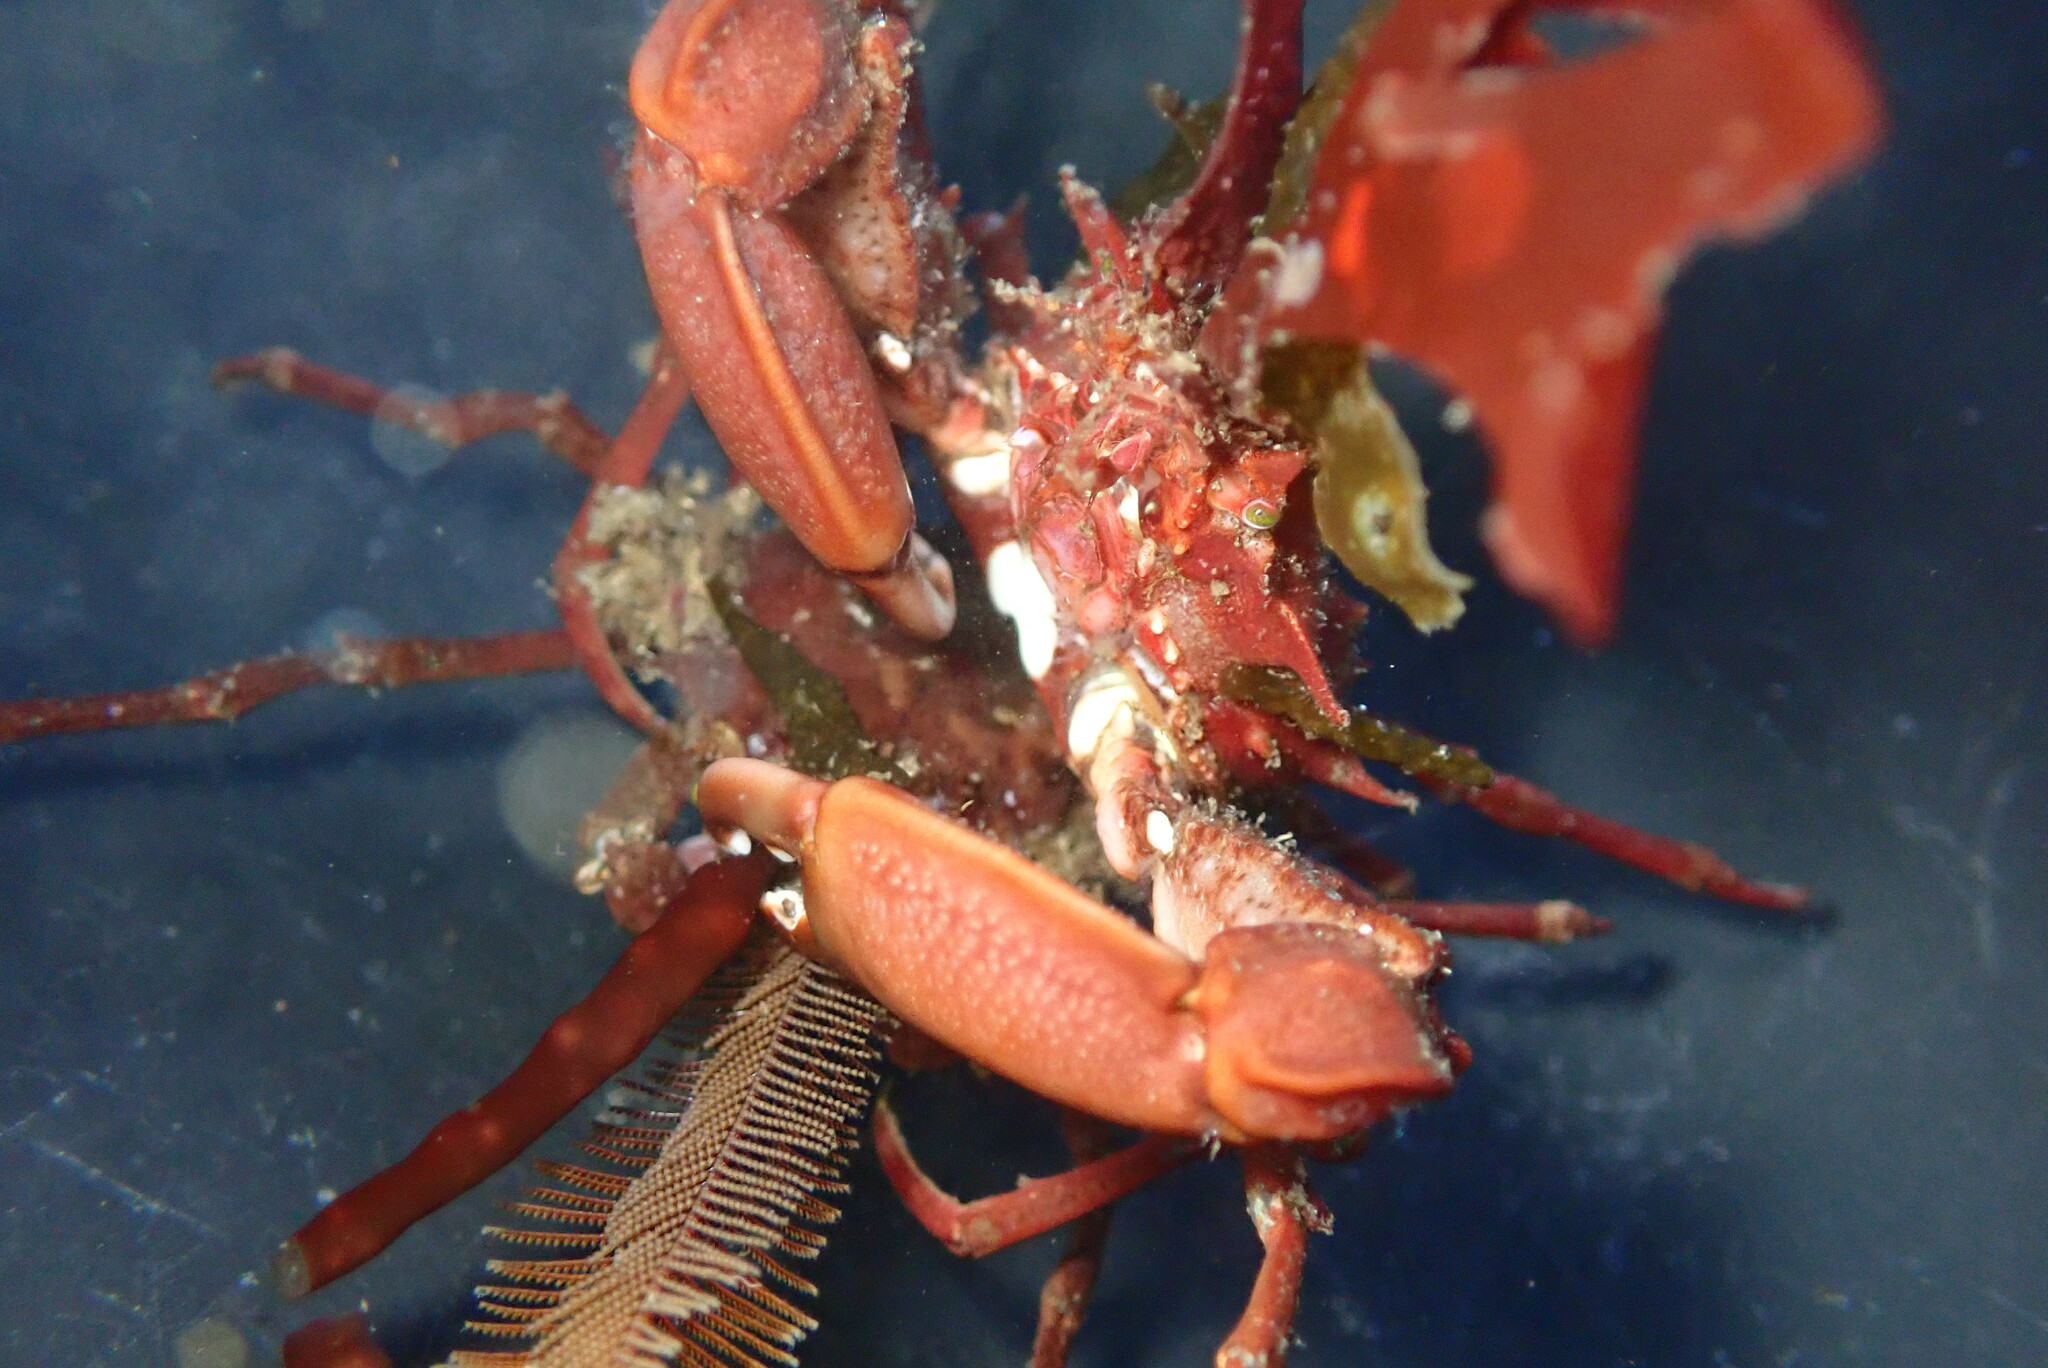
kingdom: Animalia
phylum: Arthropoda
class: Malacostraca
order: Decapoda
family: Epialtidae
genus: Pugettia
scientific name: Pugettia richii
